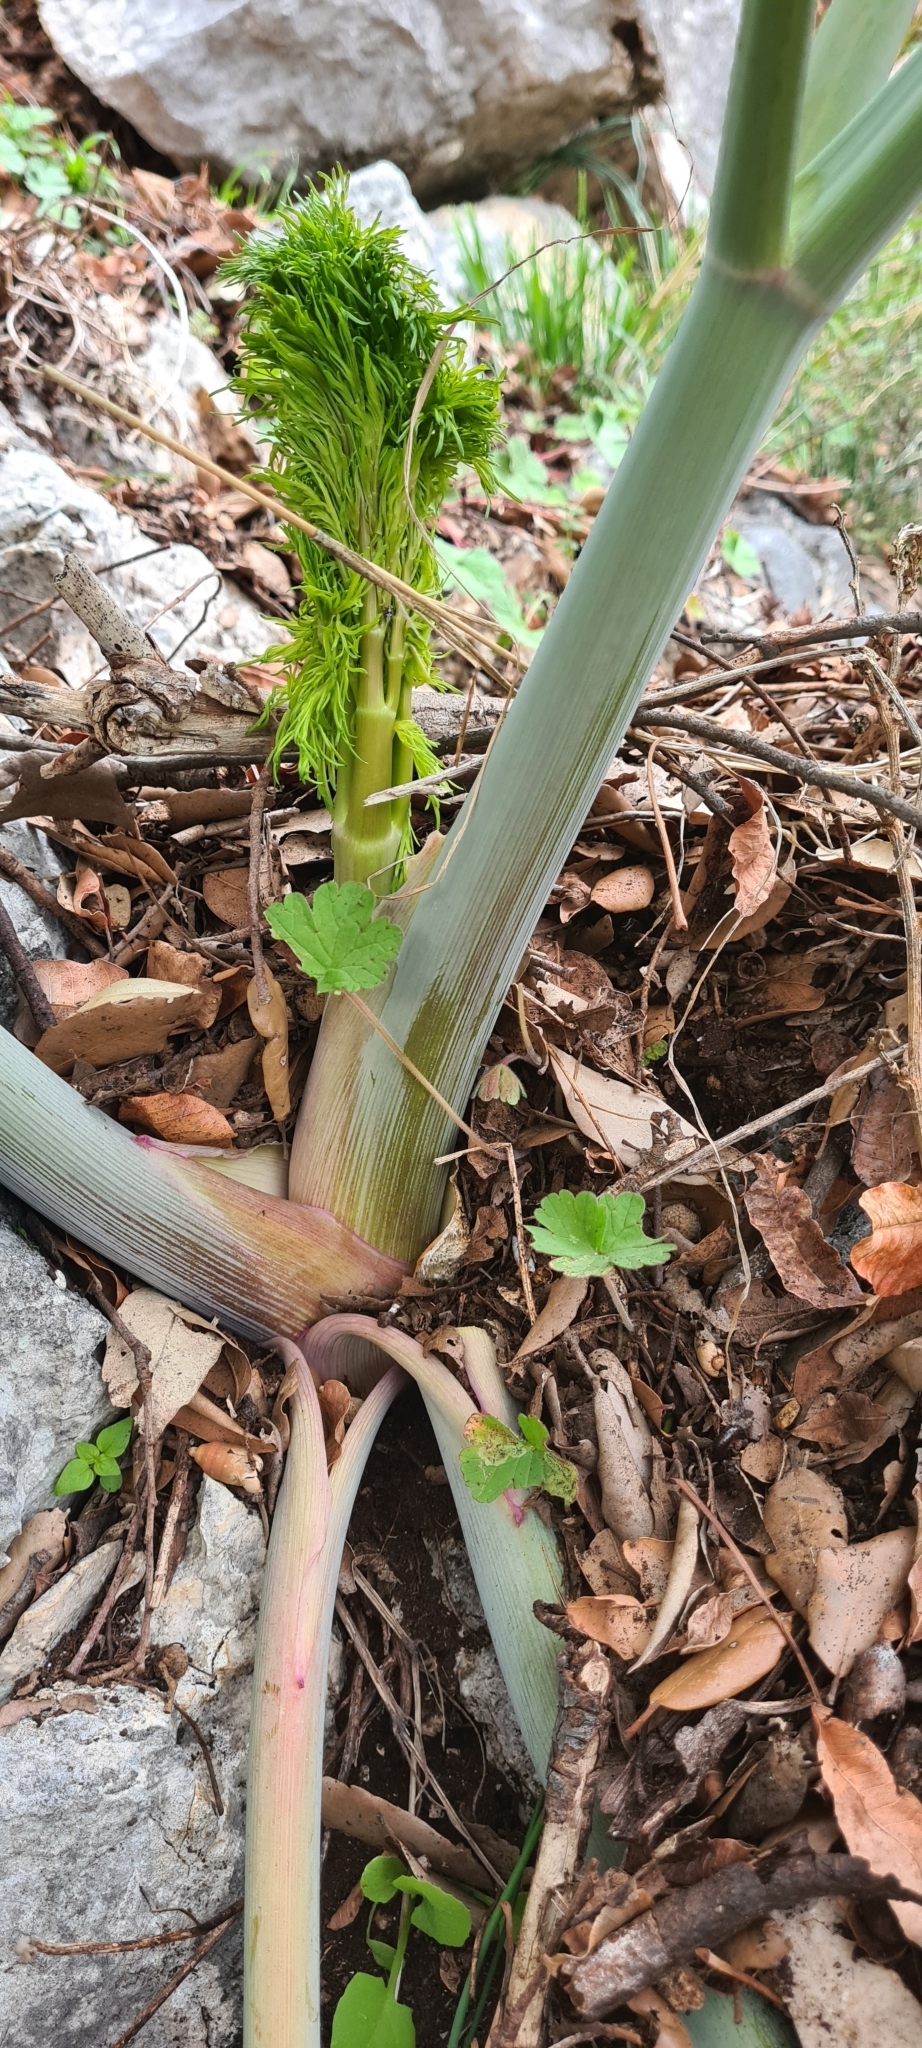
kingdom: Plantae
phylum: Tracheophyta
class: Magnoliopsida
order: Apiales
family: Apiaceae
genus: Ferula
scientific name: Ferula communis
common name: Giant fennel
